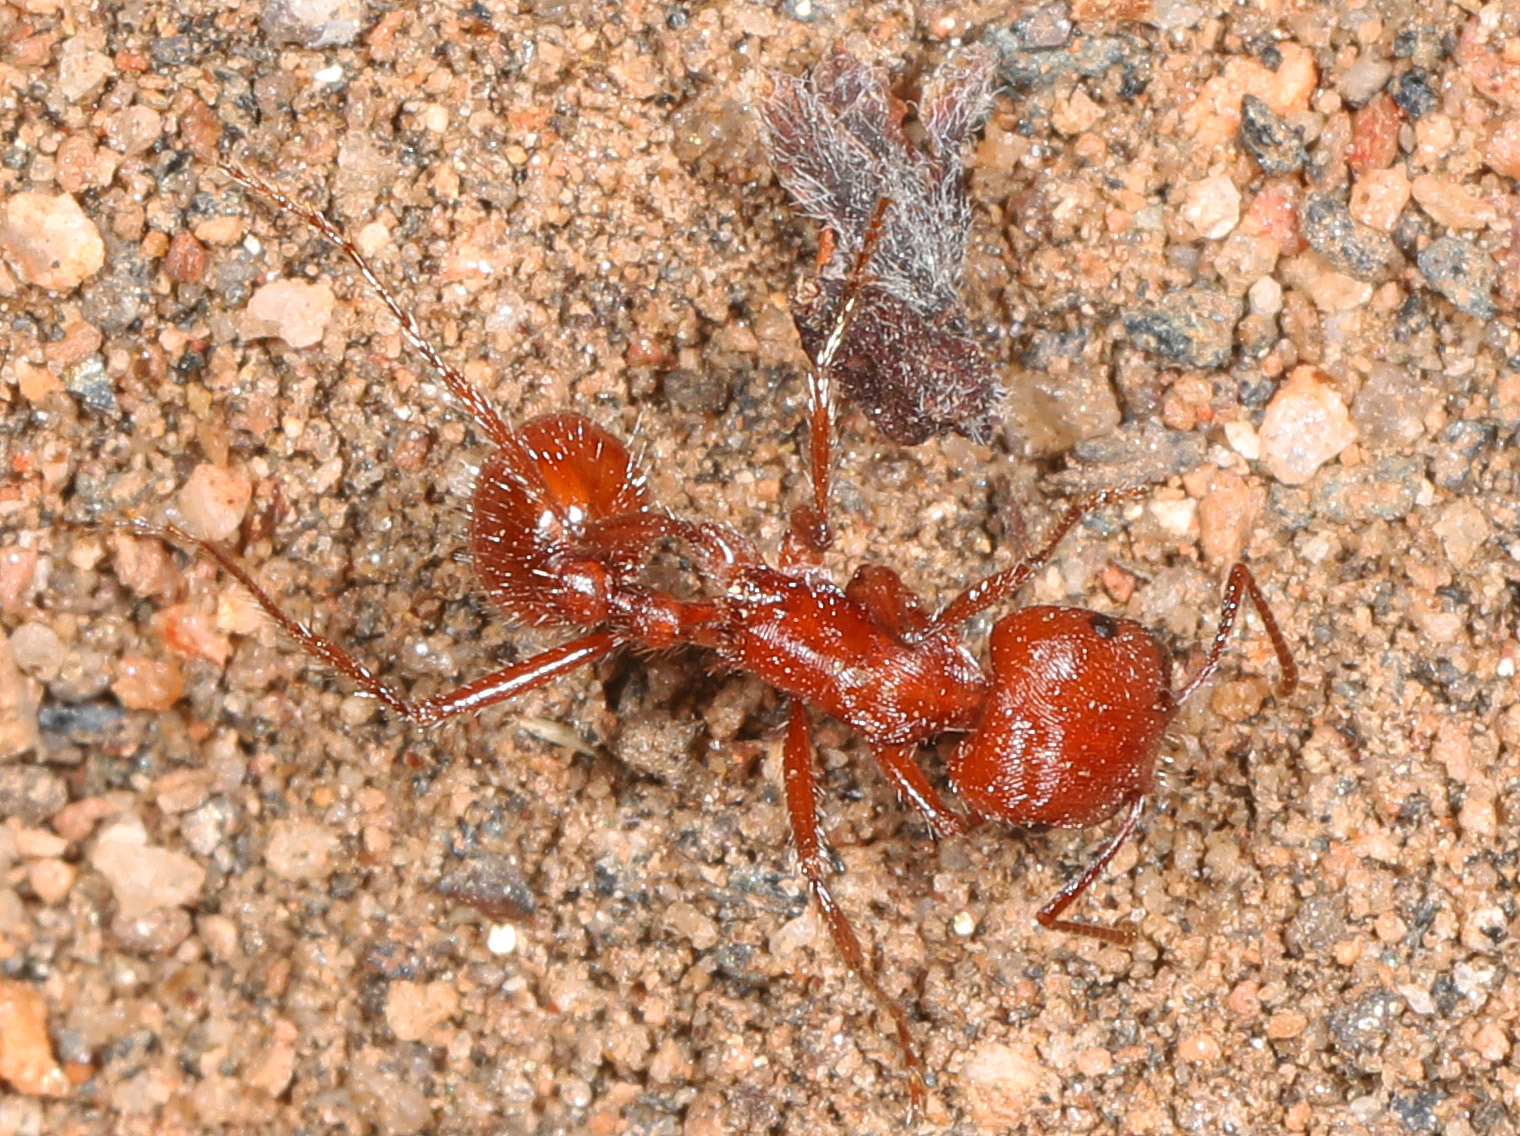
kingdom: Animalia
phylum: Arthropoda
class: Insecta
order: Hymenoptera
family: Formicidae
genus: Pogonomyrmex
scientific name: Pogonomyrmex subnitidus
